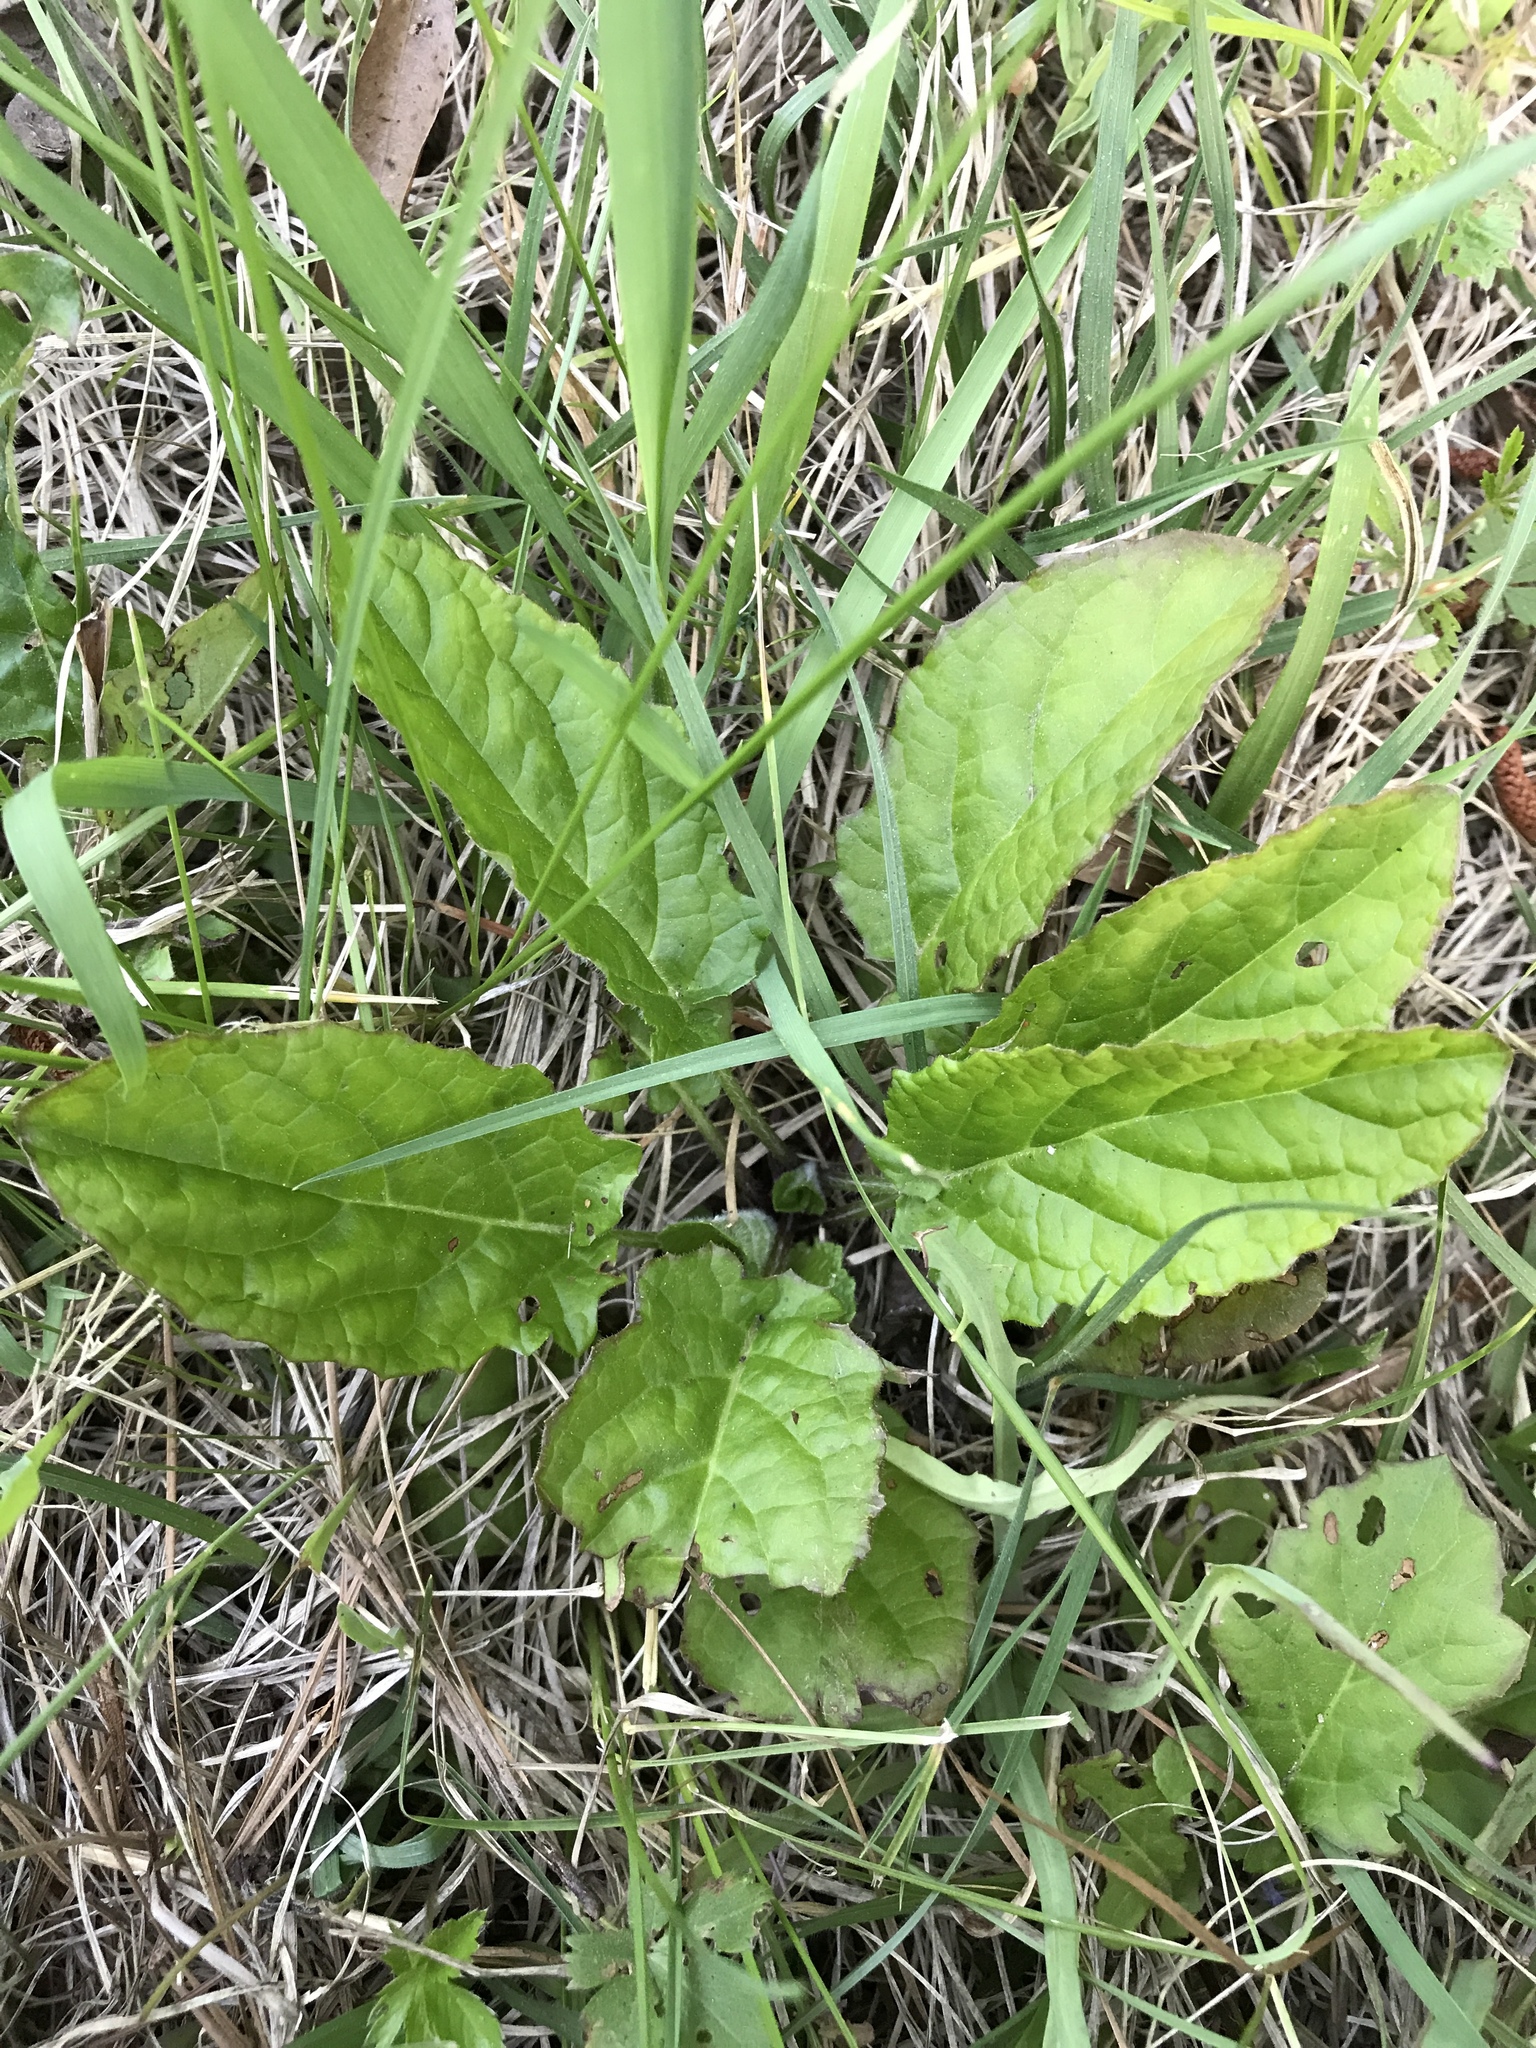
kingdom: Plantae
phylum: Tracheophyta
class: Magnoliopsida
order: Lamiales
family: Lamiaceae
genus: Salvia
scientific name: Salvia lyrata
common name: Cancerweed
